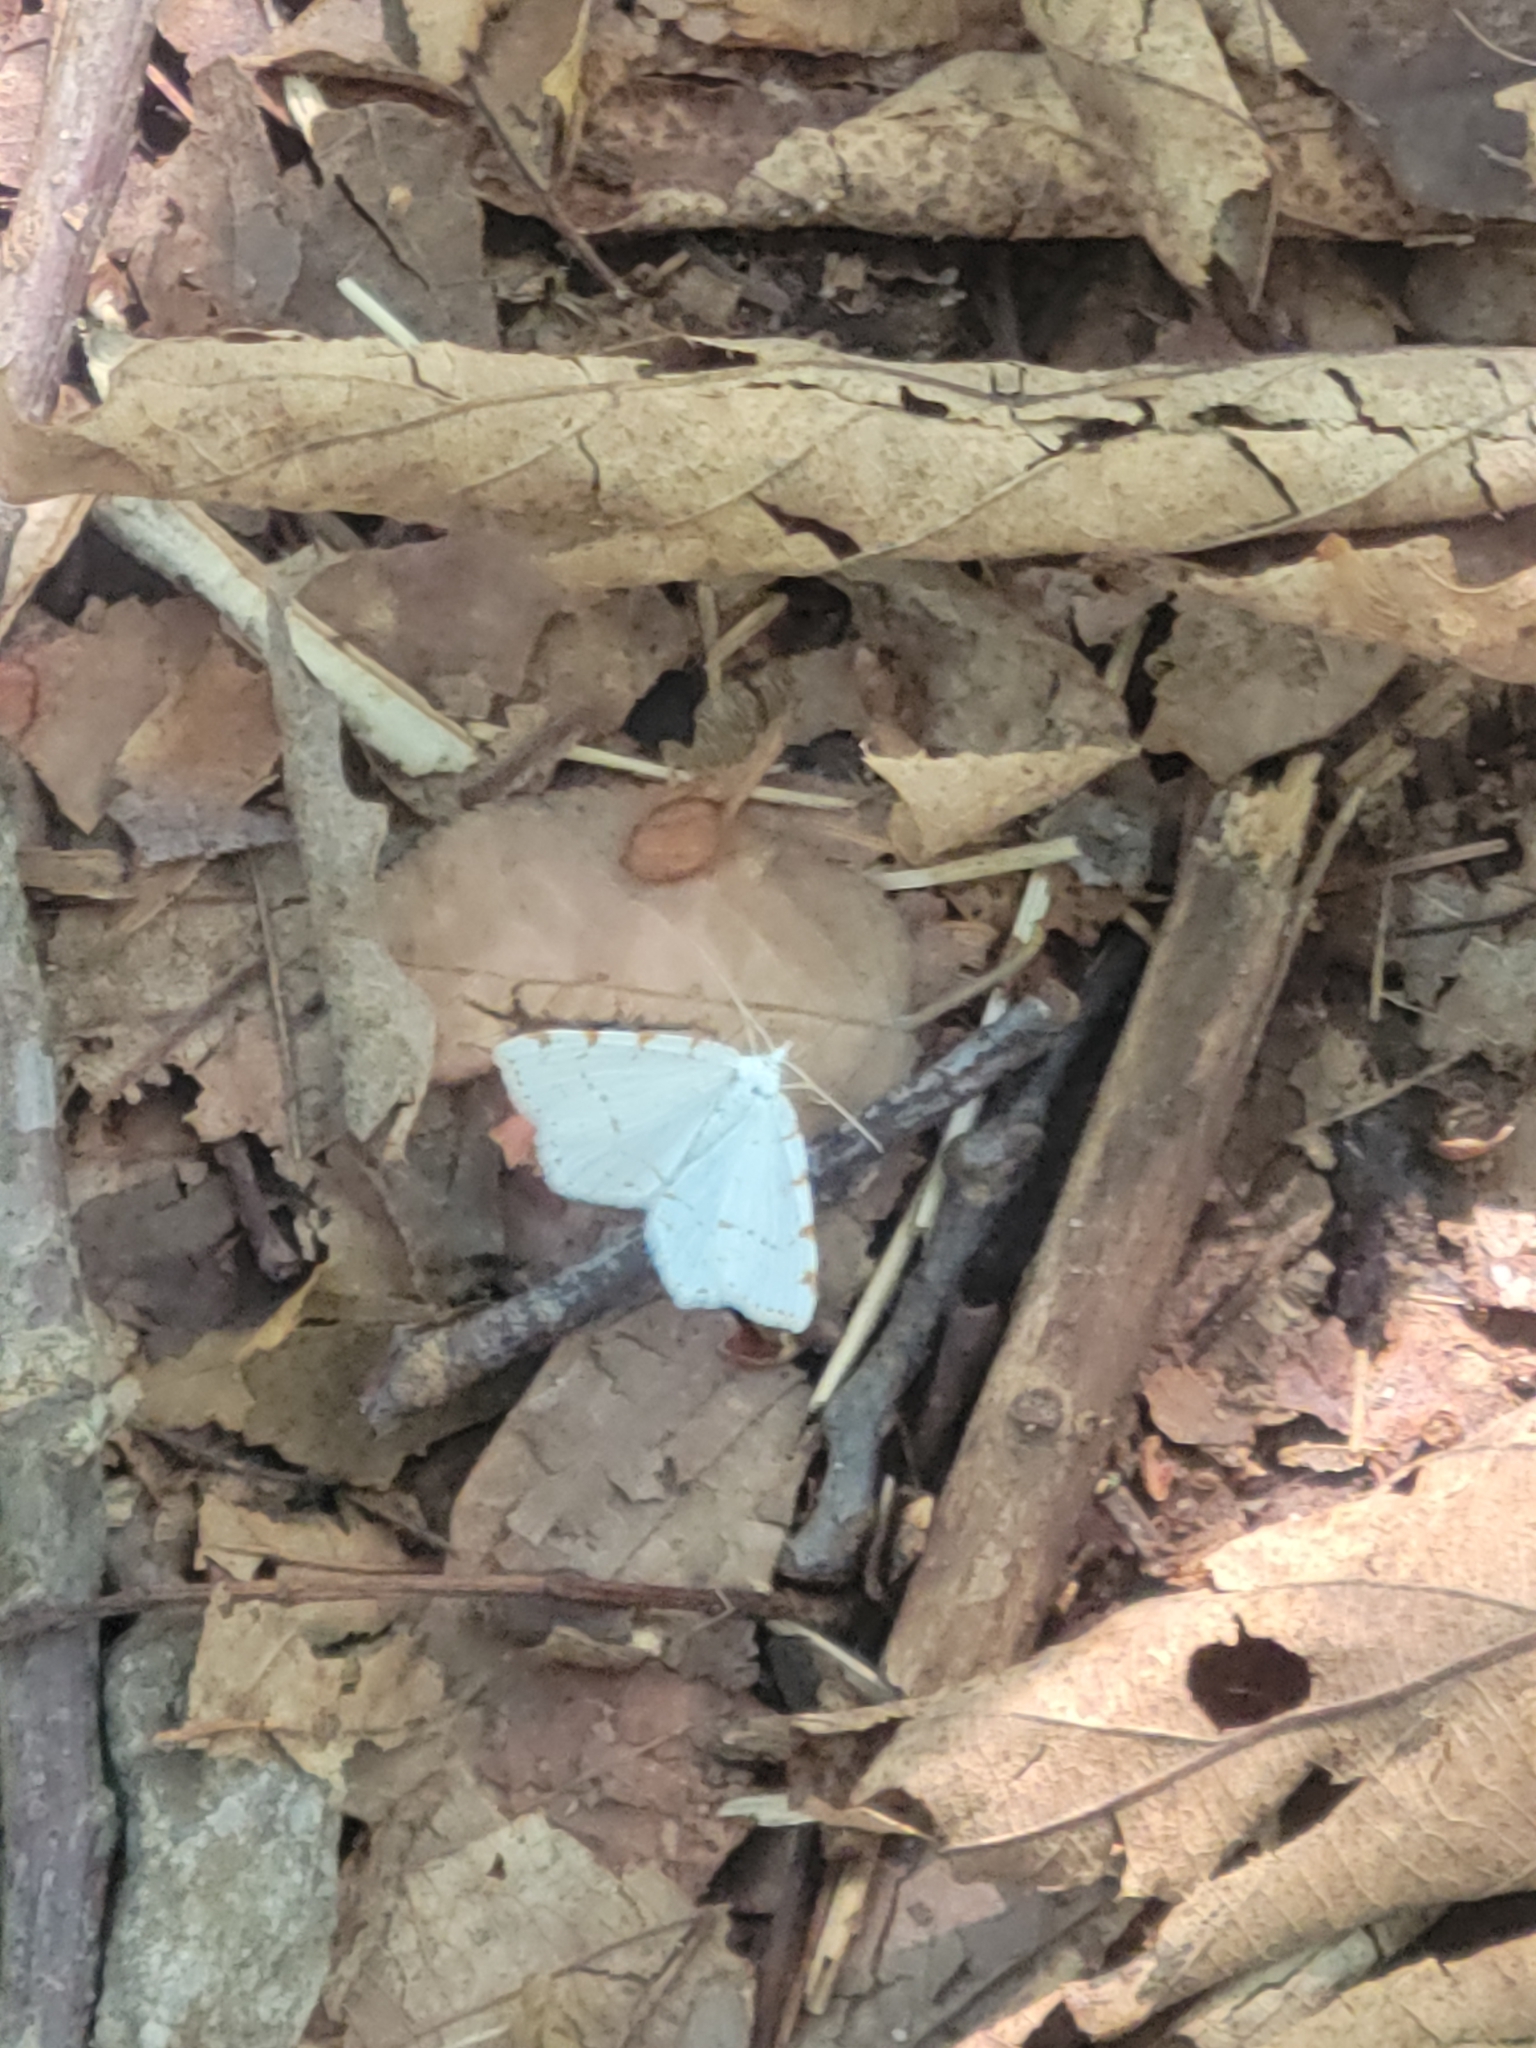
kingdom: Animalia
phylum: Arthropoda
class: Insecta
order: Lepidoptera
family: Geometridae
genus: Macaria
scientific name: Macaria pustularia
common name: Lesser maple spanworm moth
